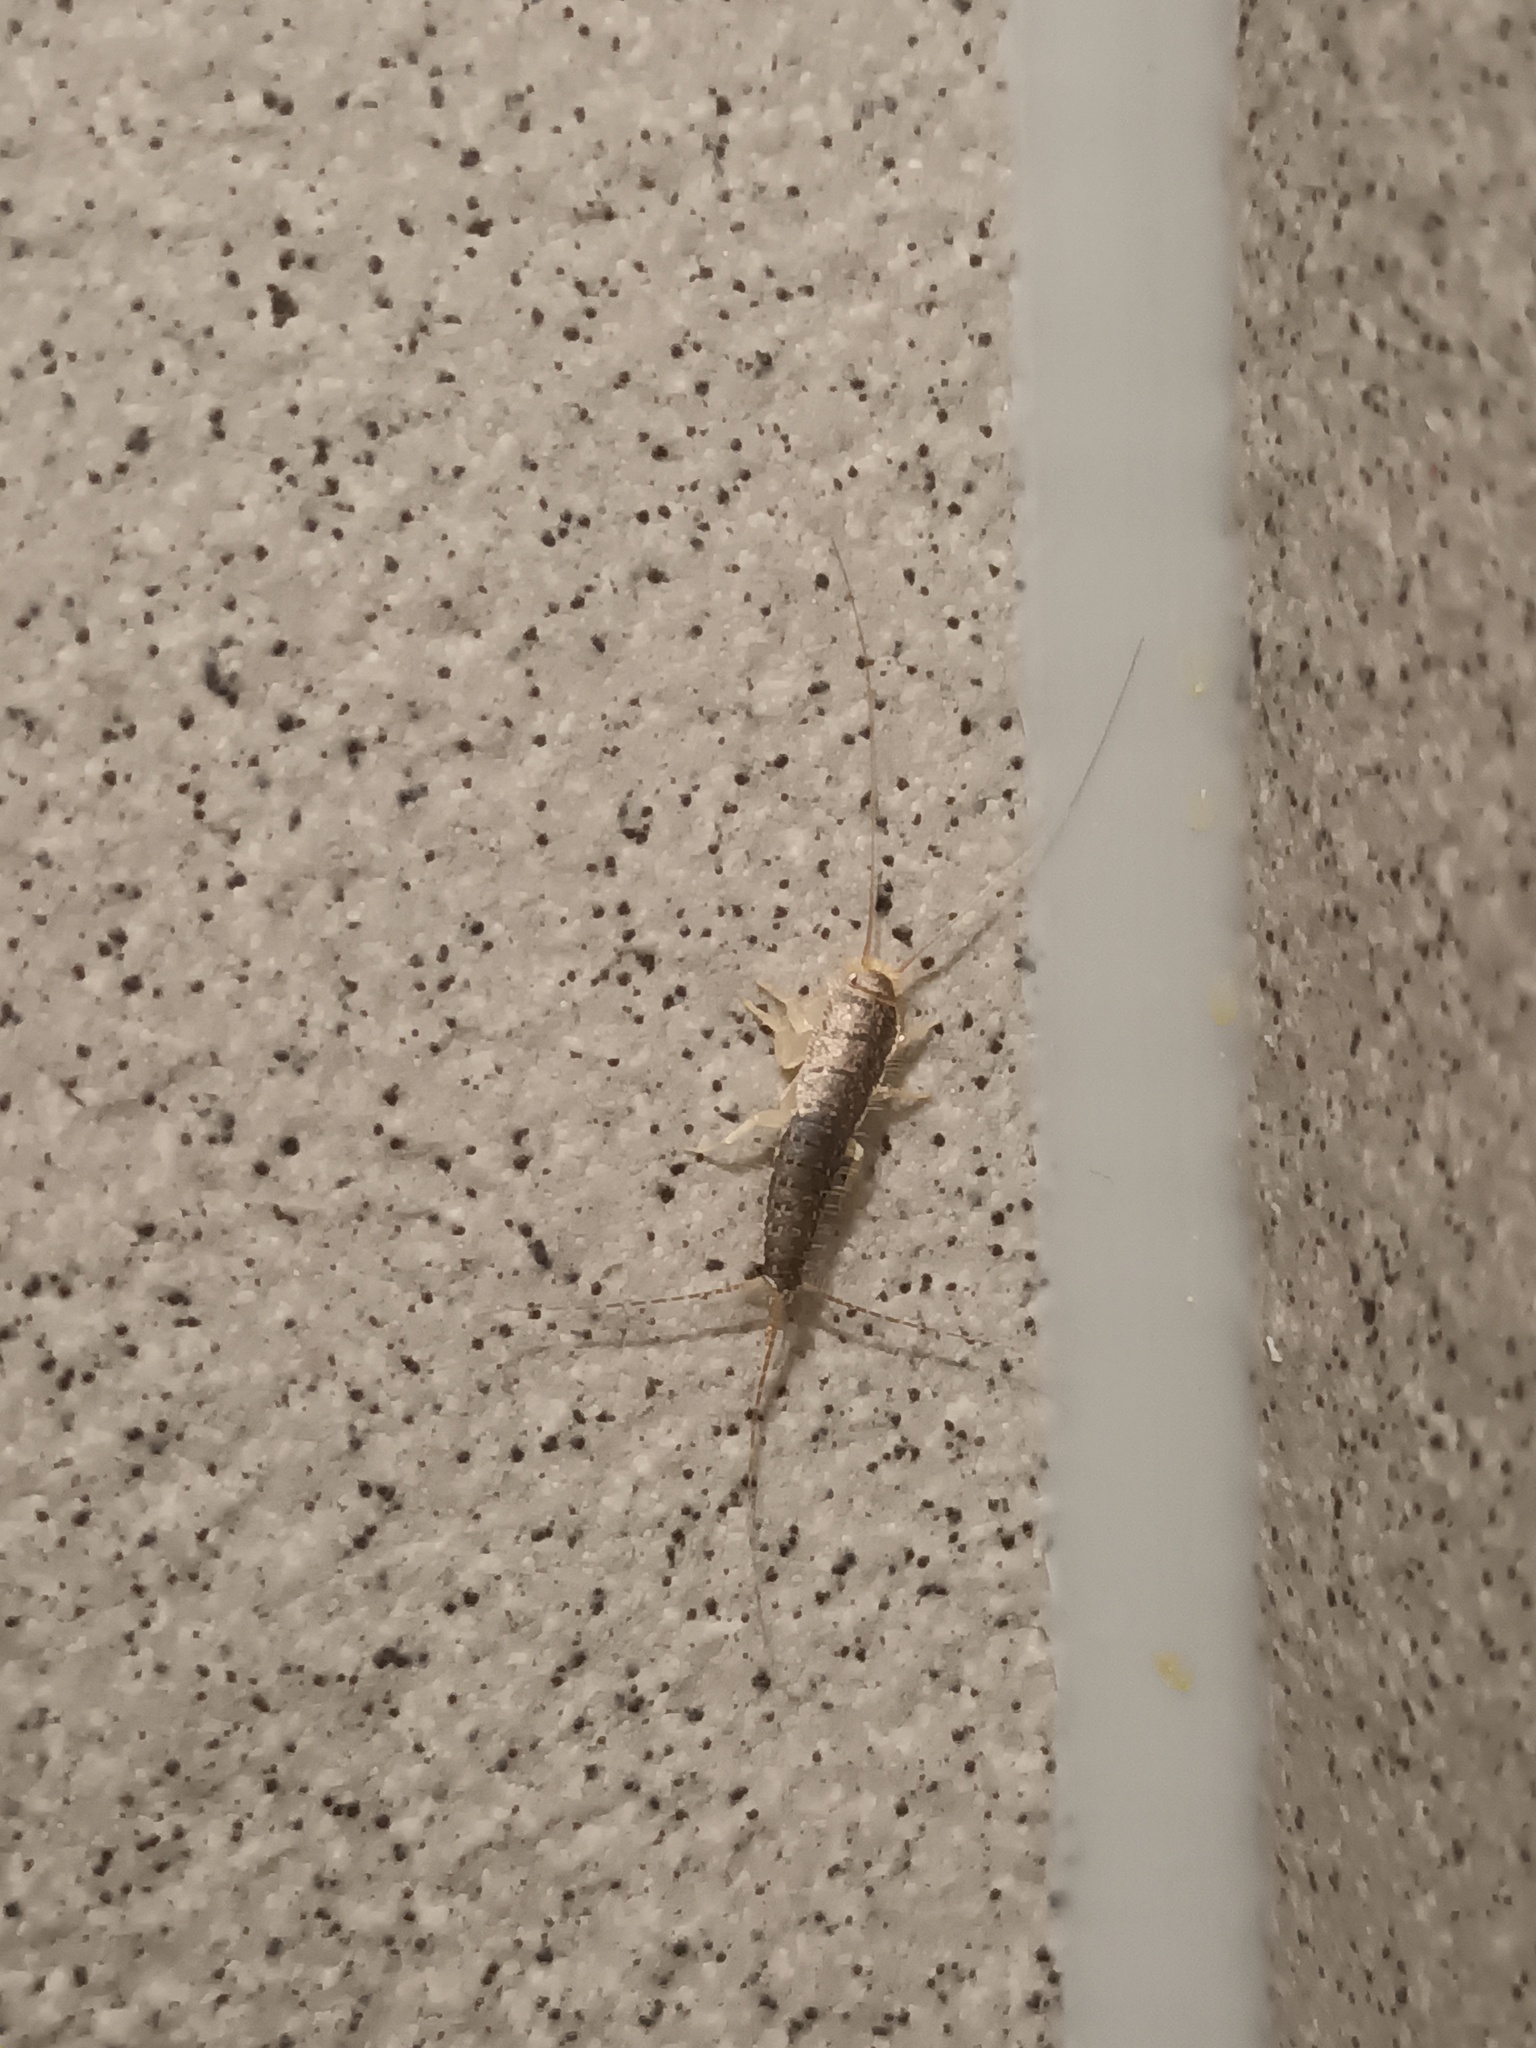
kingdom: Animalia
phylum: Arthropoda
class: Insecta
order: Zygentoma
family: Lepismatidae
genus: Ctenolepisma
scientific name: Ctenolepisma longicaudatum
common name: Silverfish
